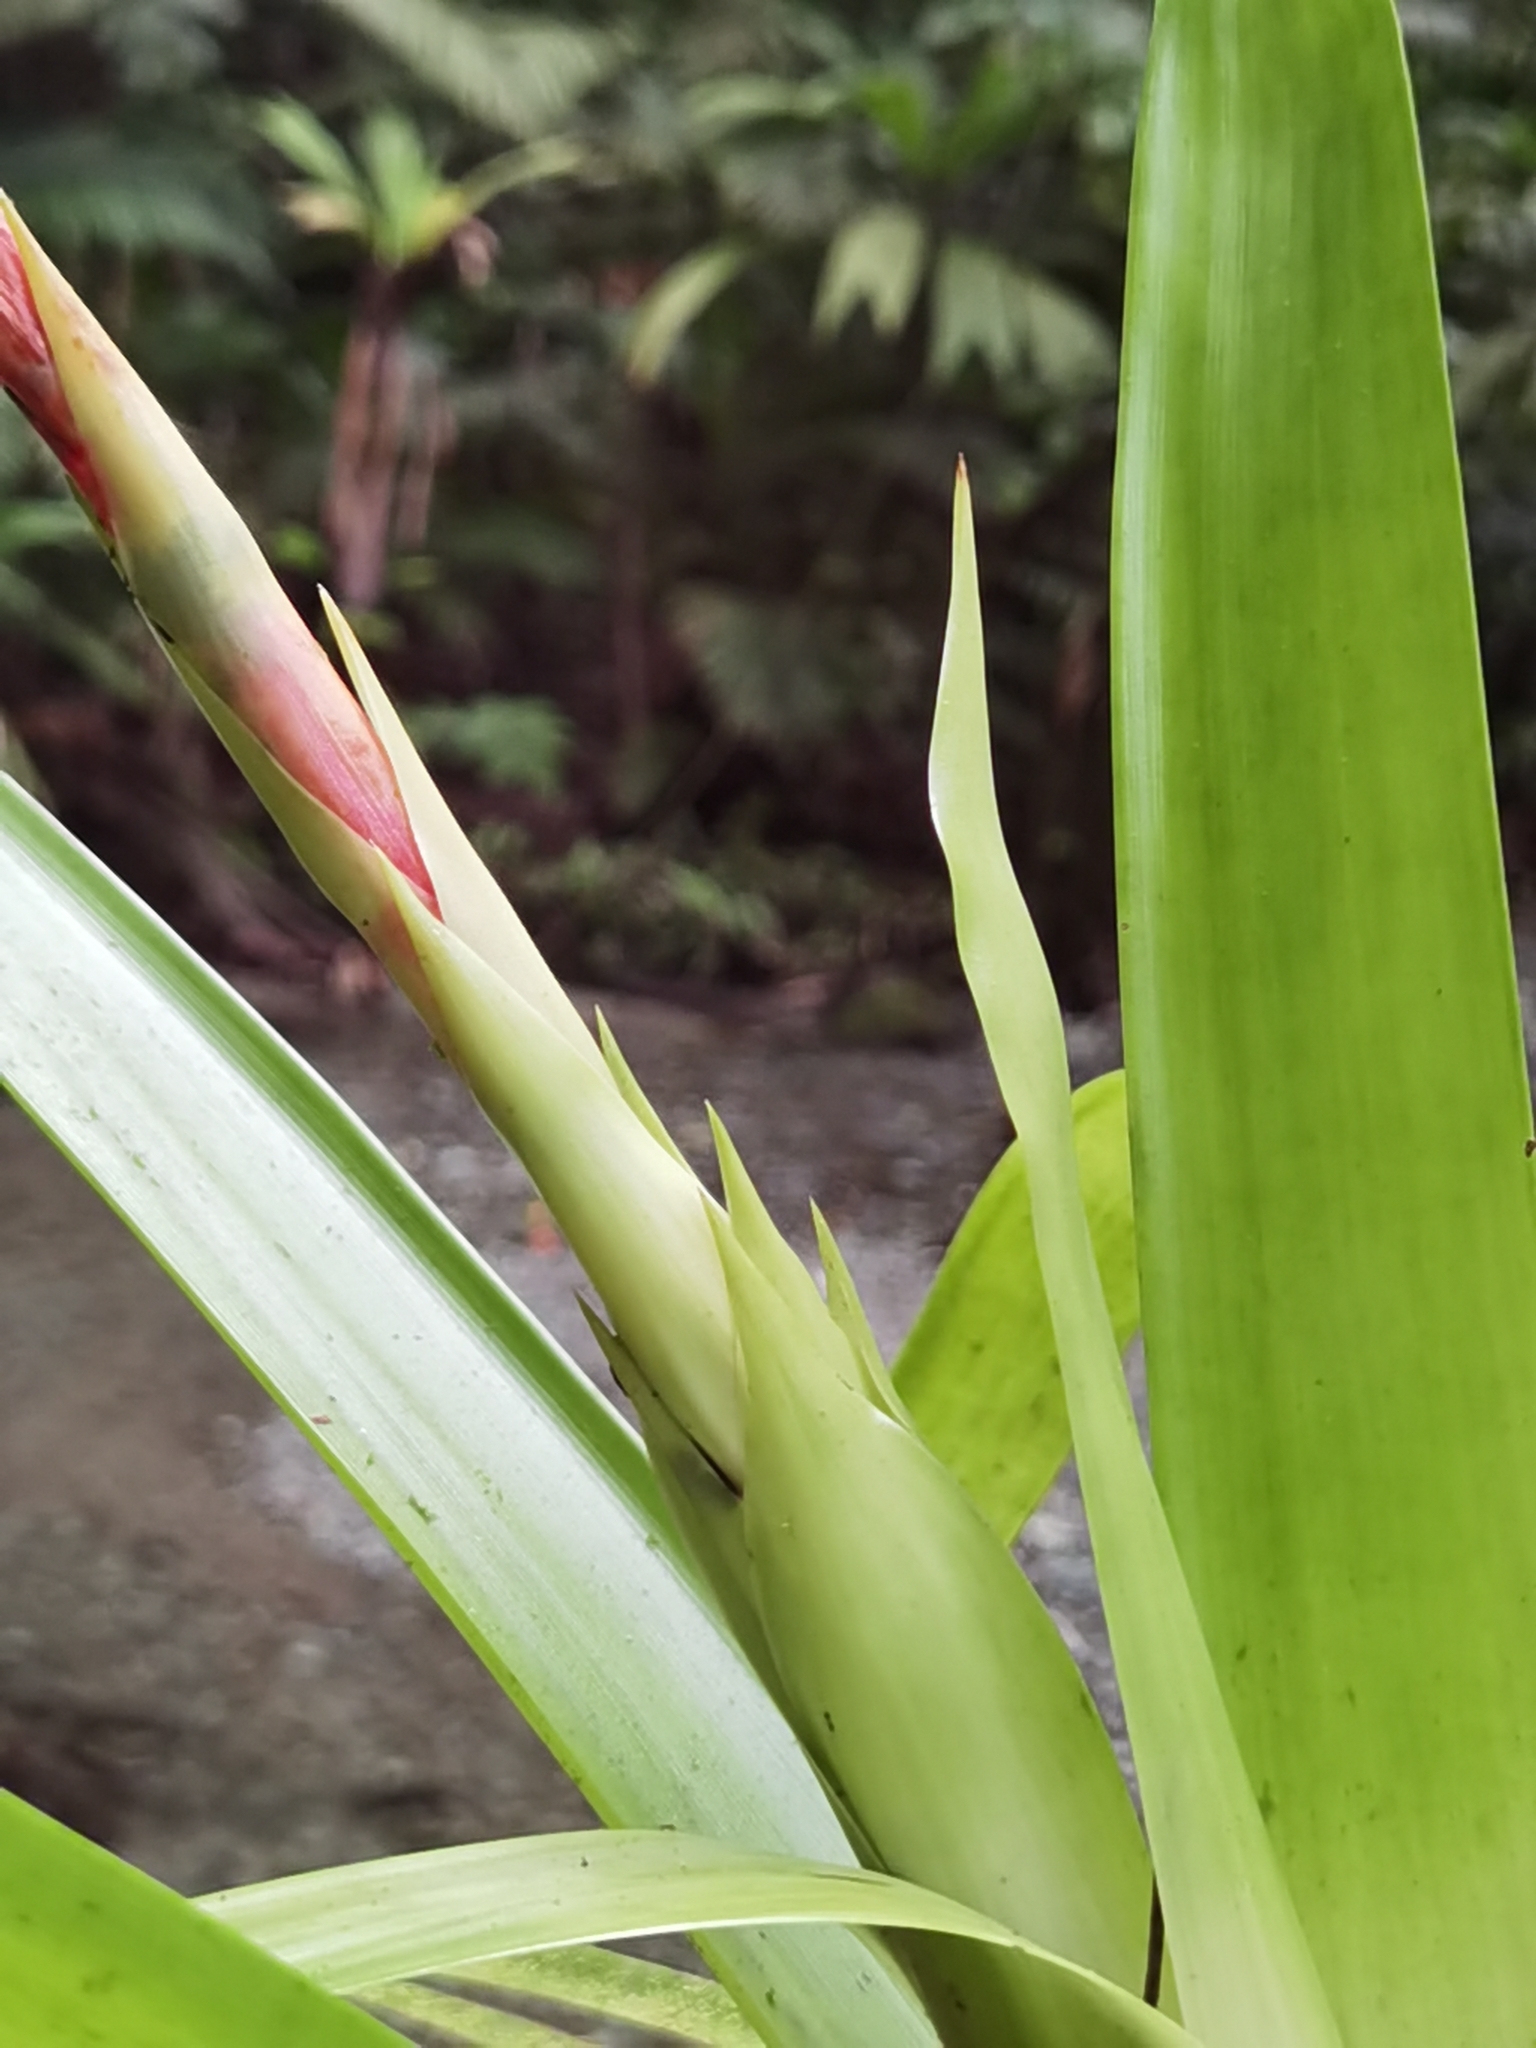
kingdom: Plantae
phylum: Tracheophyta
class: Liliopsida
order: Poales
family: Bromeliaceae
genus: Guzmania
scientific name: Guzmania scherzeriana
